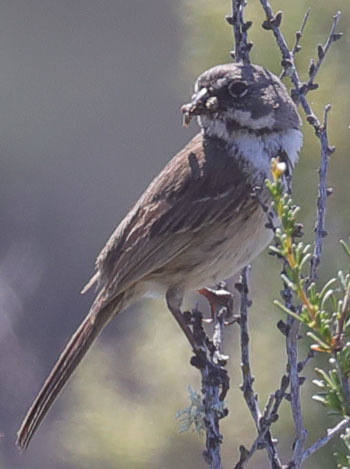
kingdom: Animalia
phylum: Chordata
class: Aves
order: Passeriformes
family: Passerellidae
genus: Artemisiospiza
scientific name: Artemisiospiza belli
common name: Bell's sparrow
